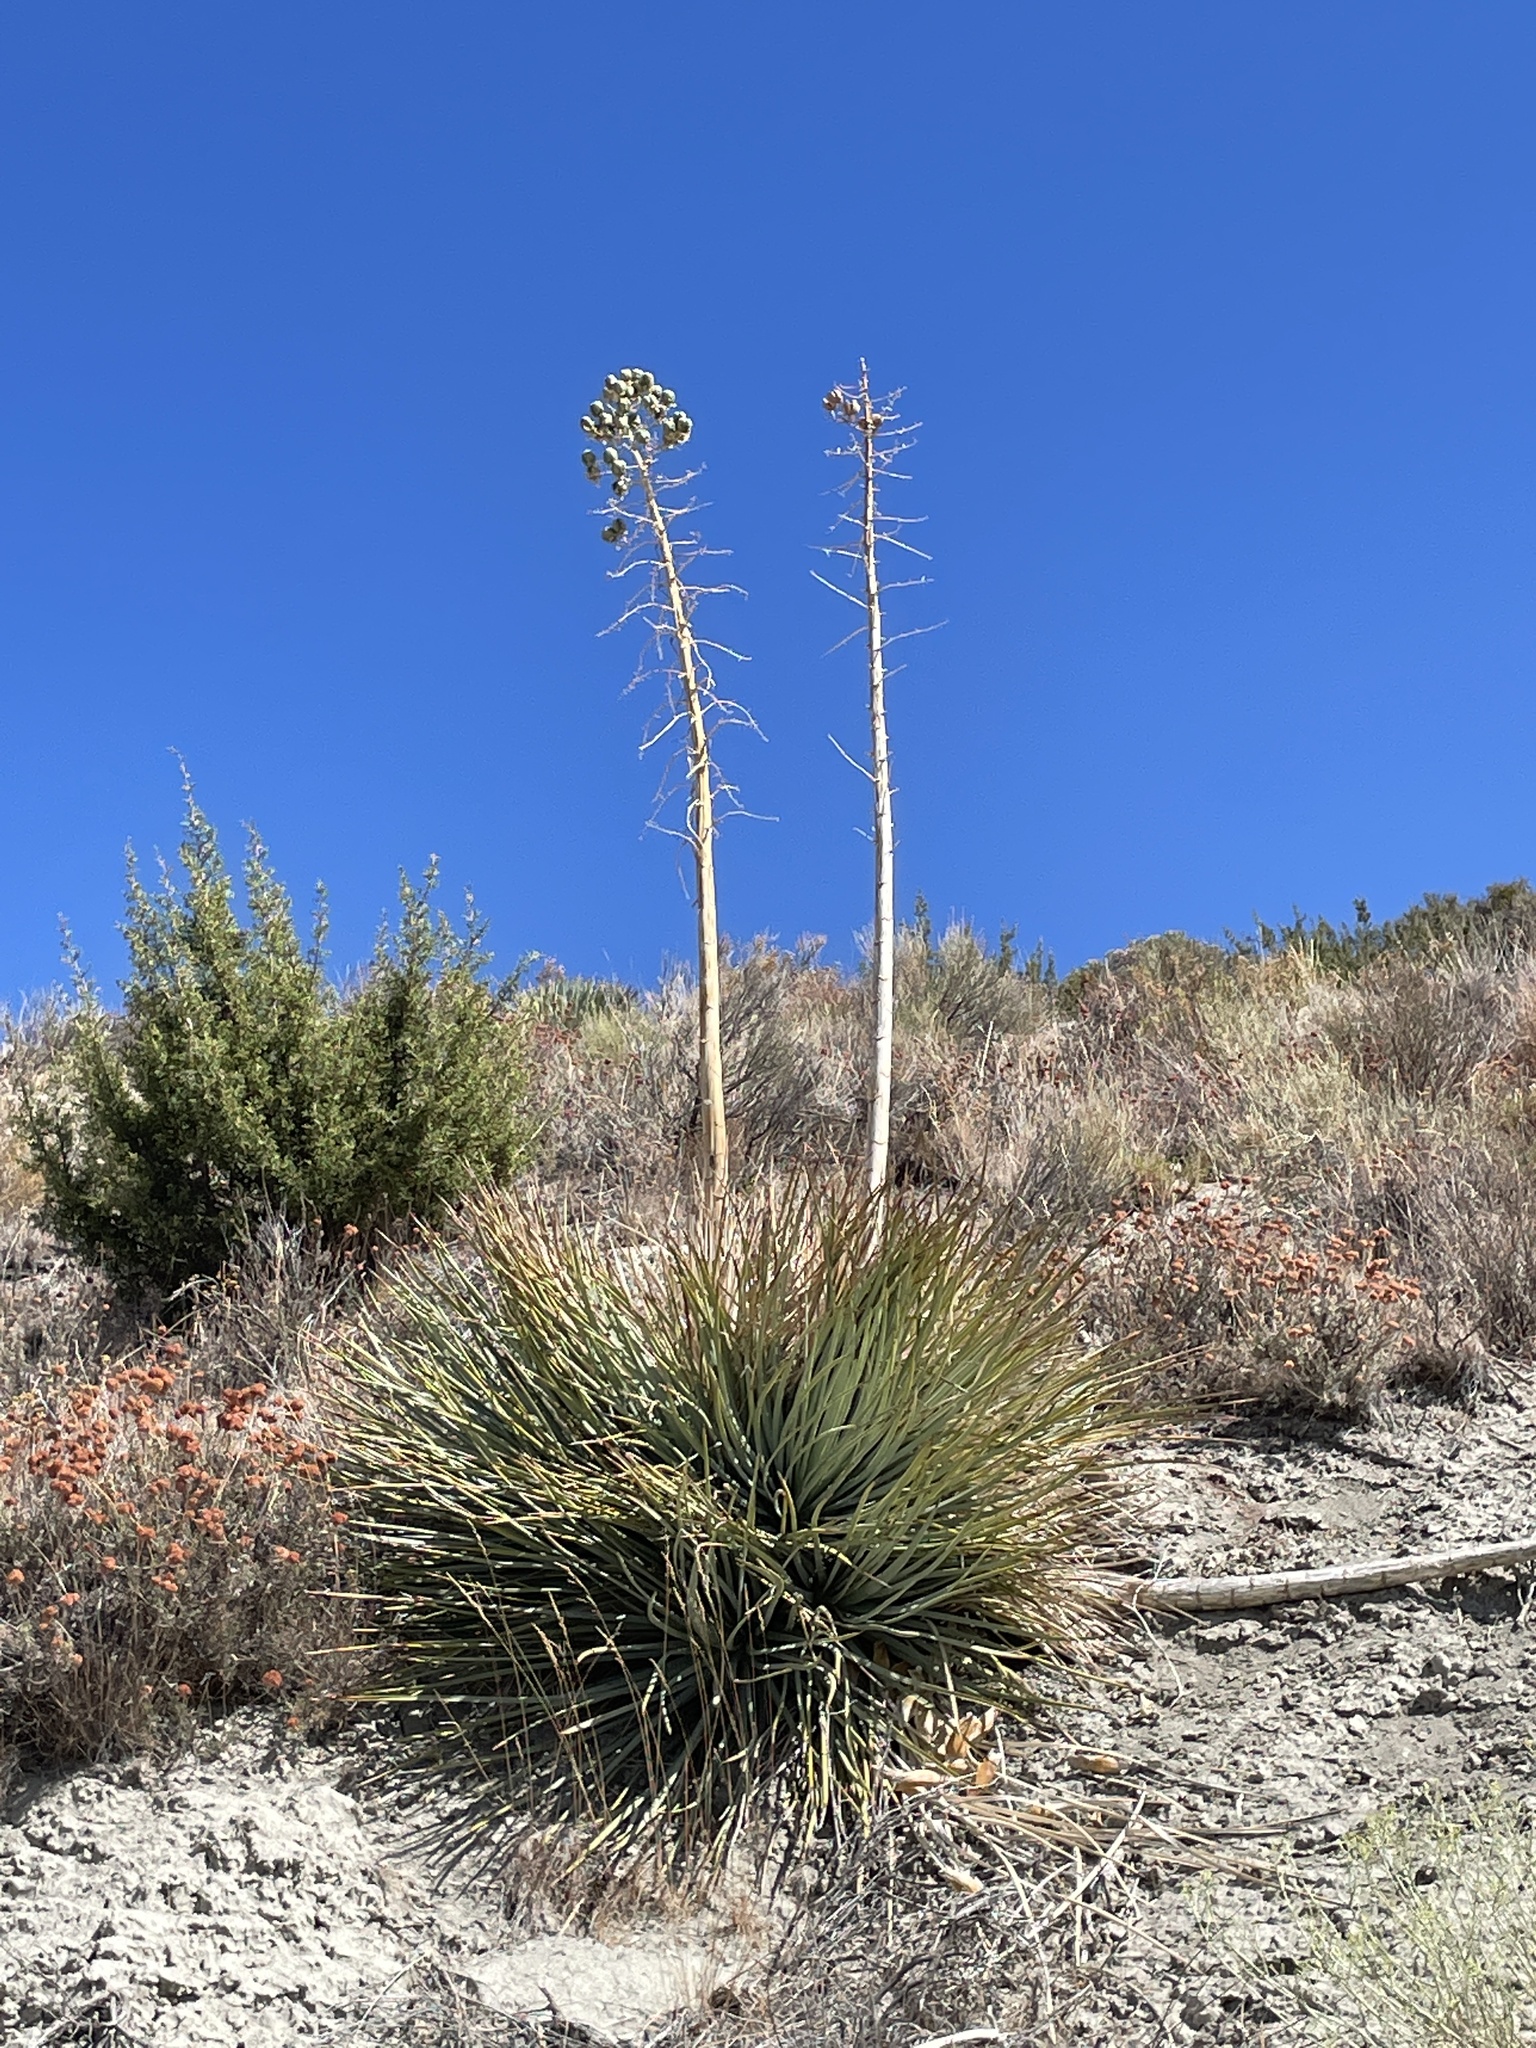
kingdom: Plantae
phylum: Tracheophyta
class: Liliopsida
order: Asparagales
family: Asparagaceae
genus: Hesperoyucca
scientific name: Hesperoyucca whipplei
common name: Our lord's-candle
